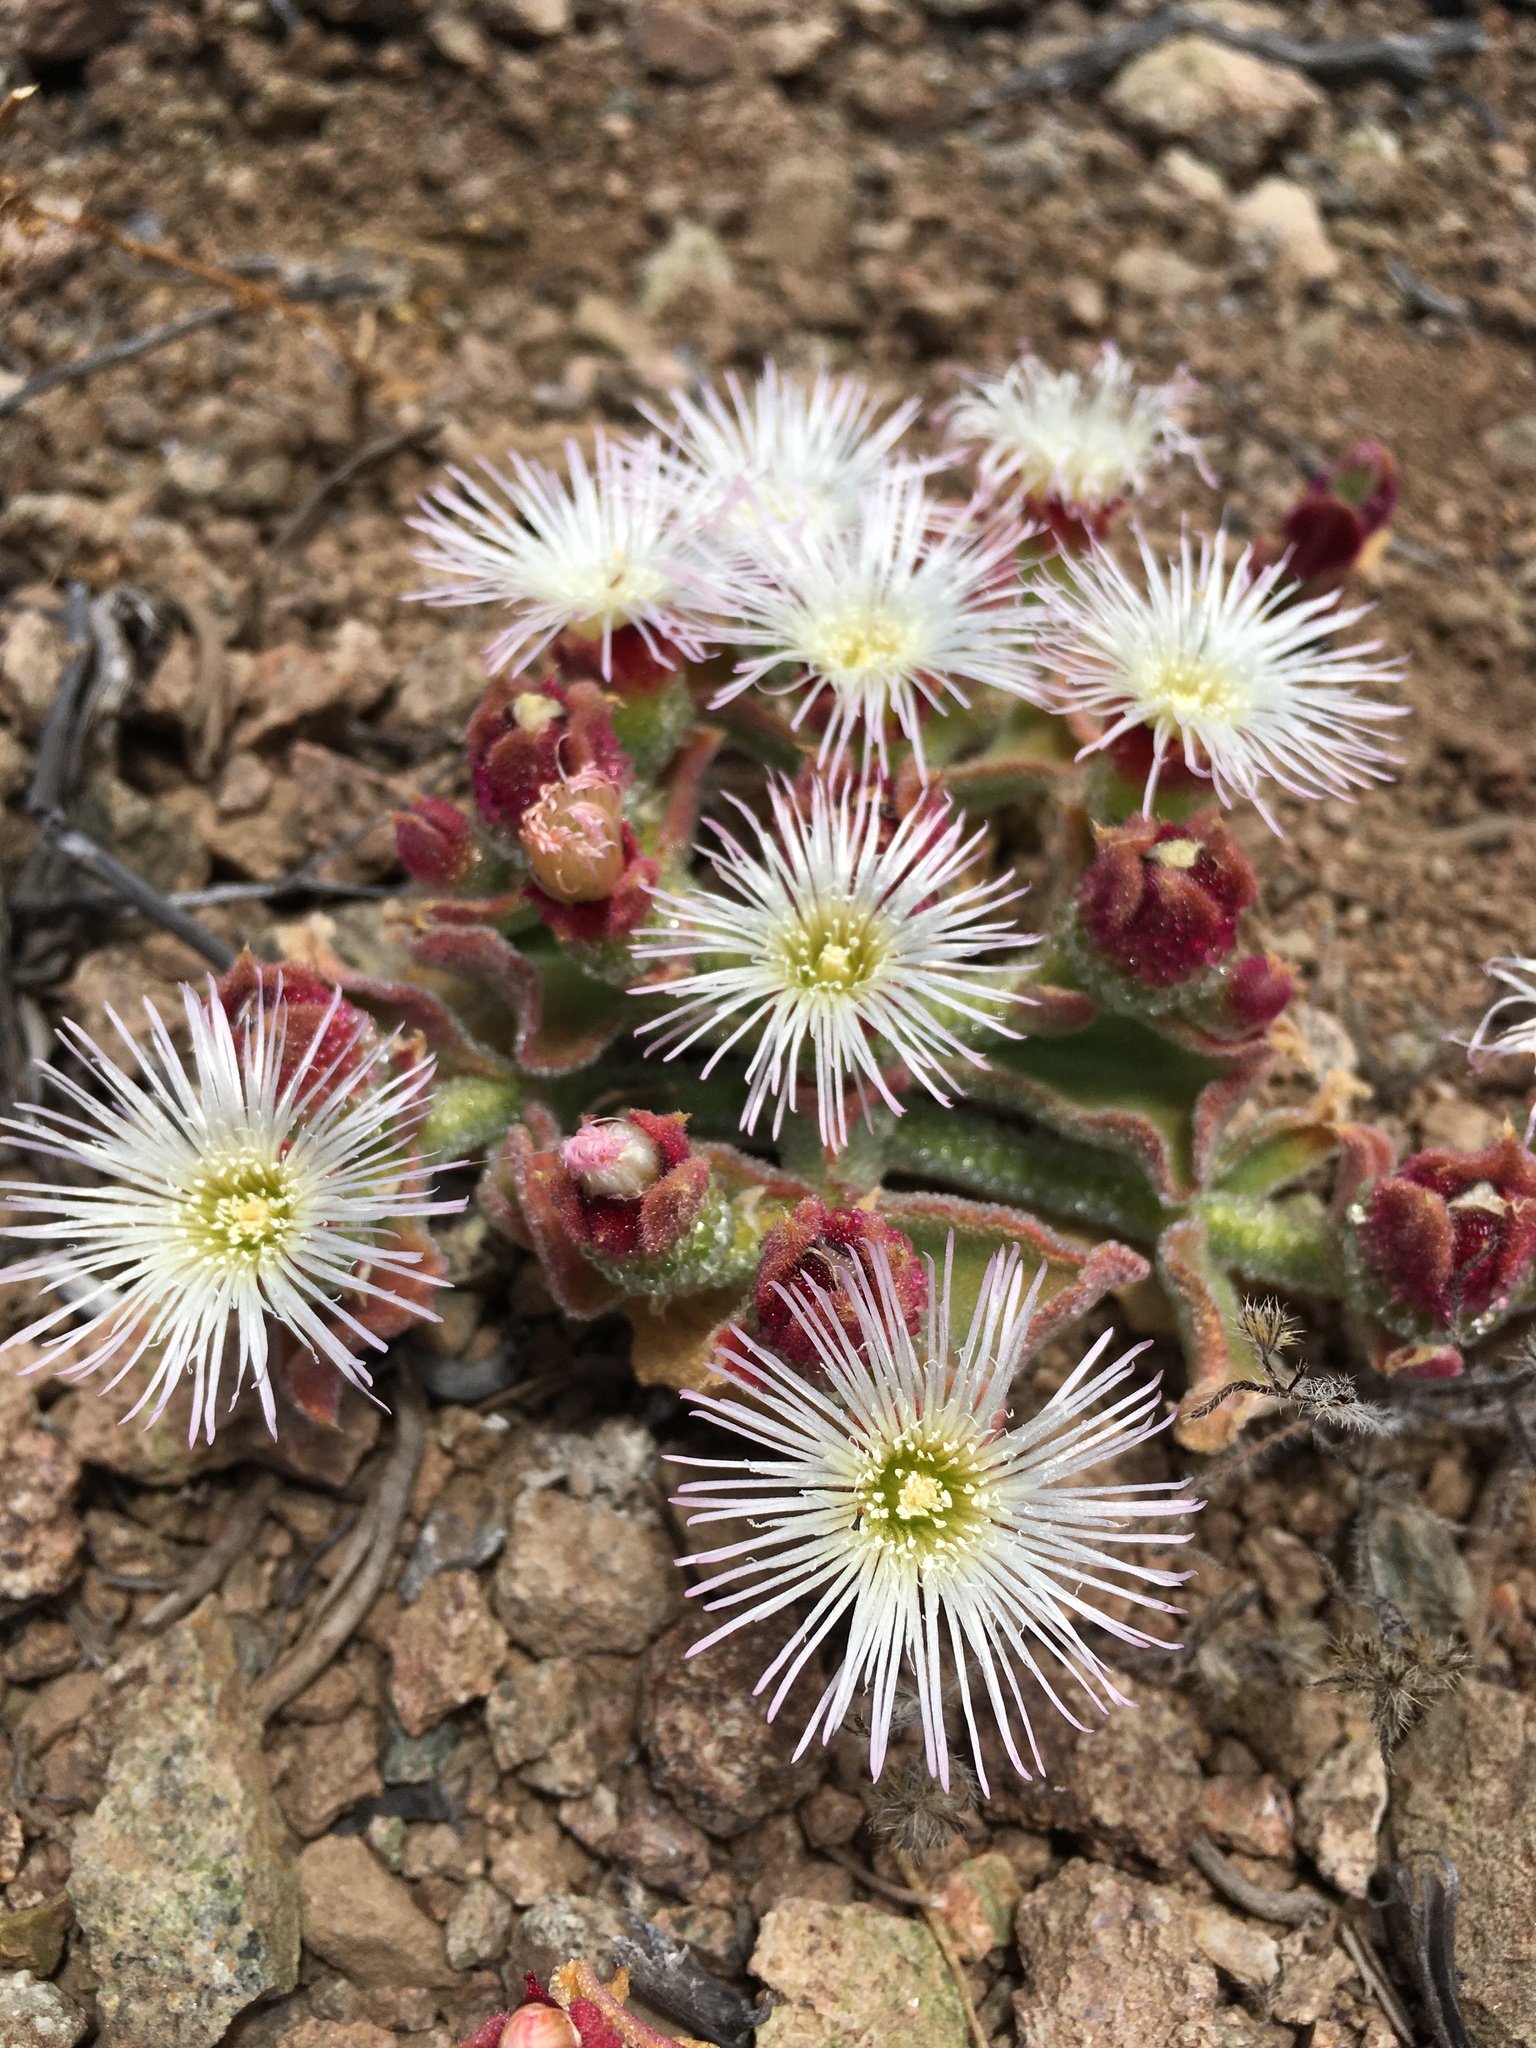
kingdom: Plantae
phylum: Tracheophyta
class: Magnoliopsida
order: Caryophyllales
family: Aizoaceae
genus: Mesembryanthemum
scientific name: Mesembryanthemum crystallinum
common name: Common iceplant
